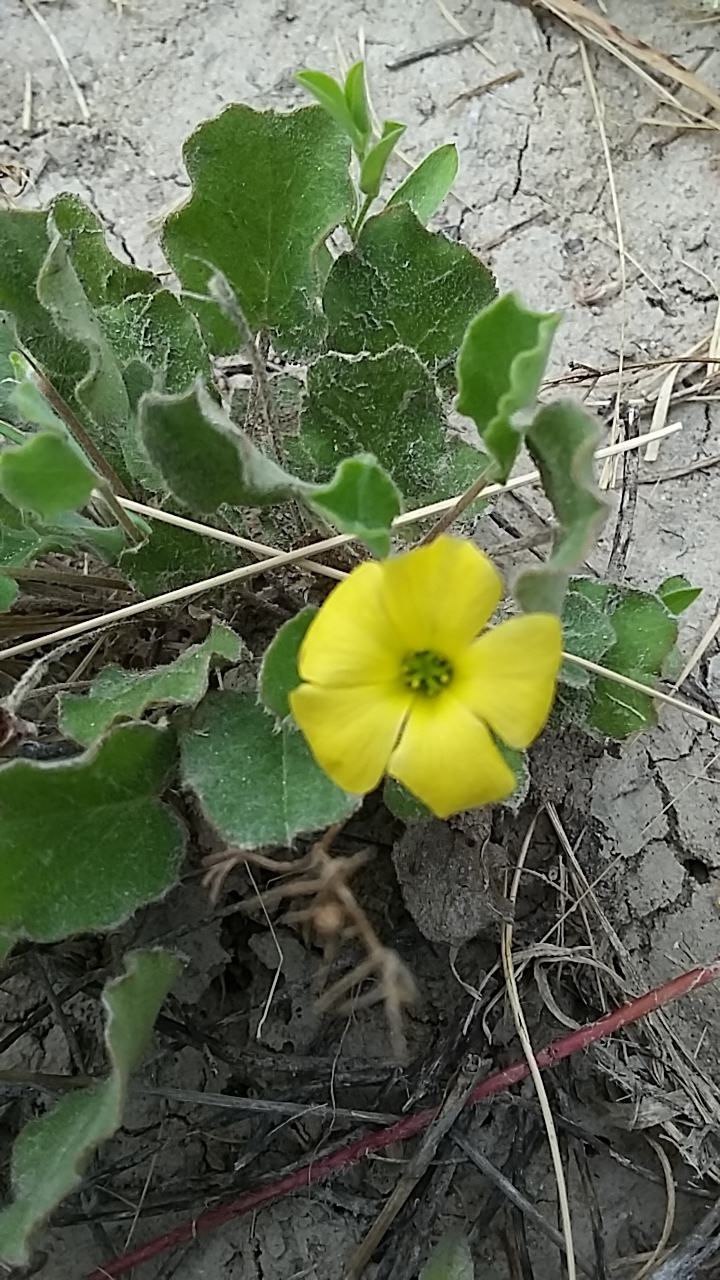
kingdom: Plantae
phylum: Tracheophyta
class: Magnoliopsida
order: Oxalidales
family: Oxalidaceae
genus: Oxalis
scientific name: Oxalis dichondrifolia
